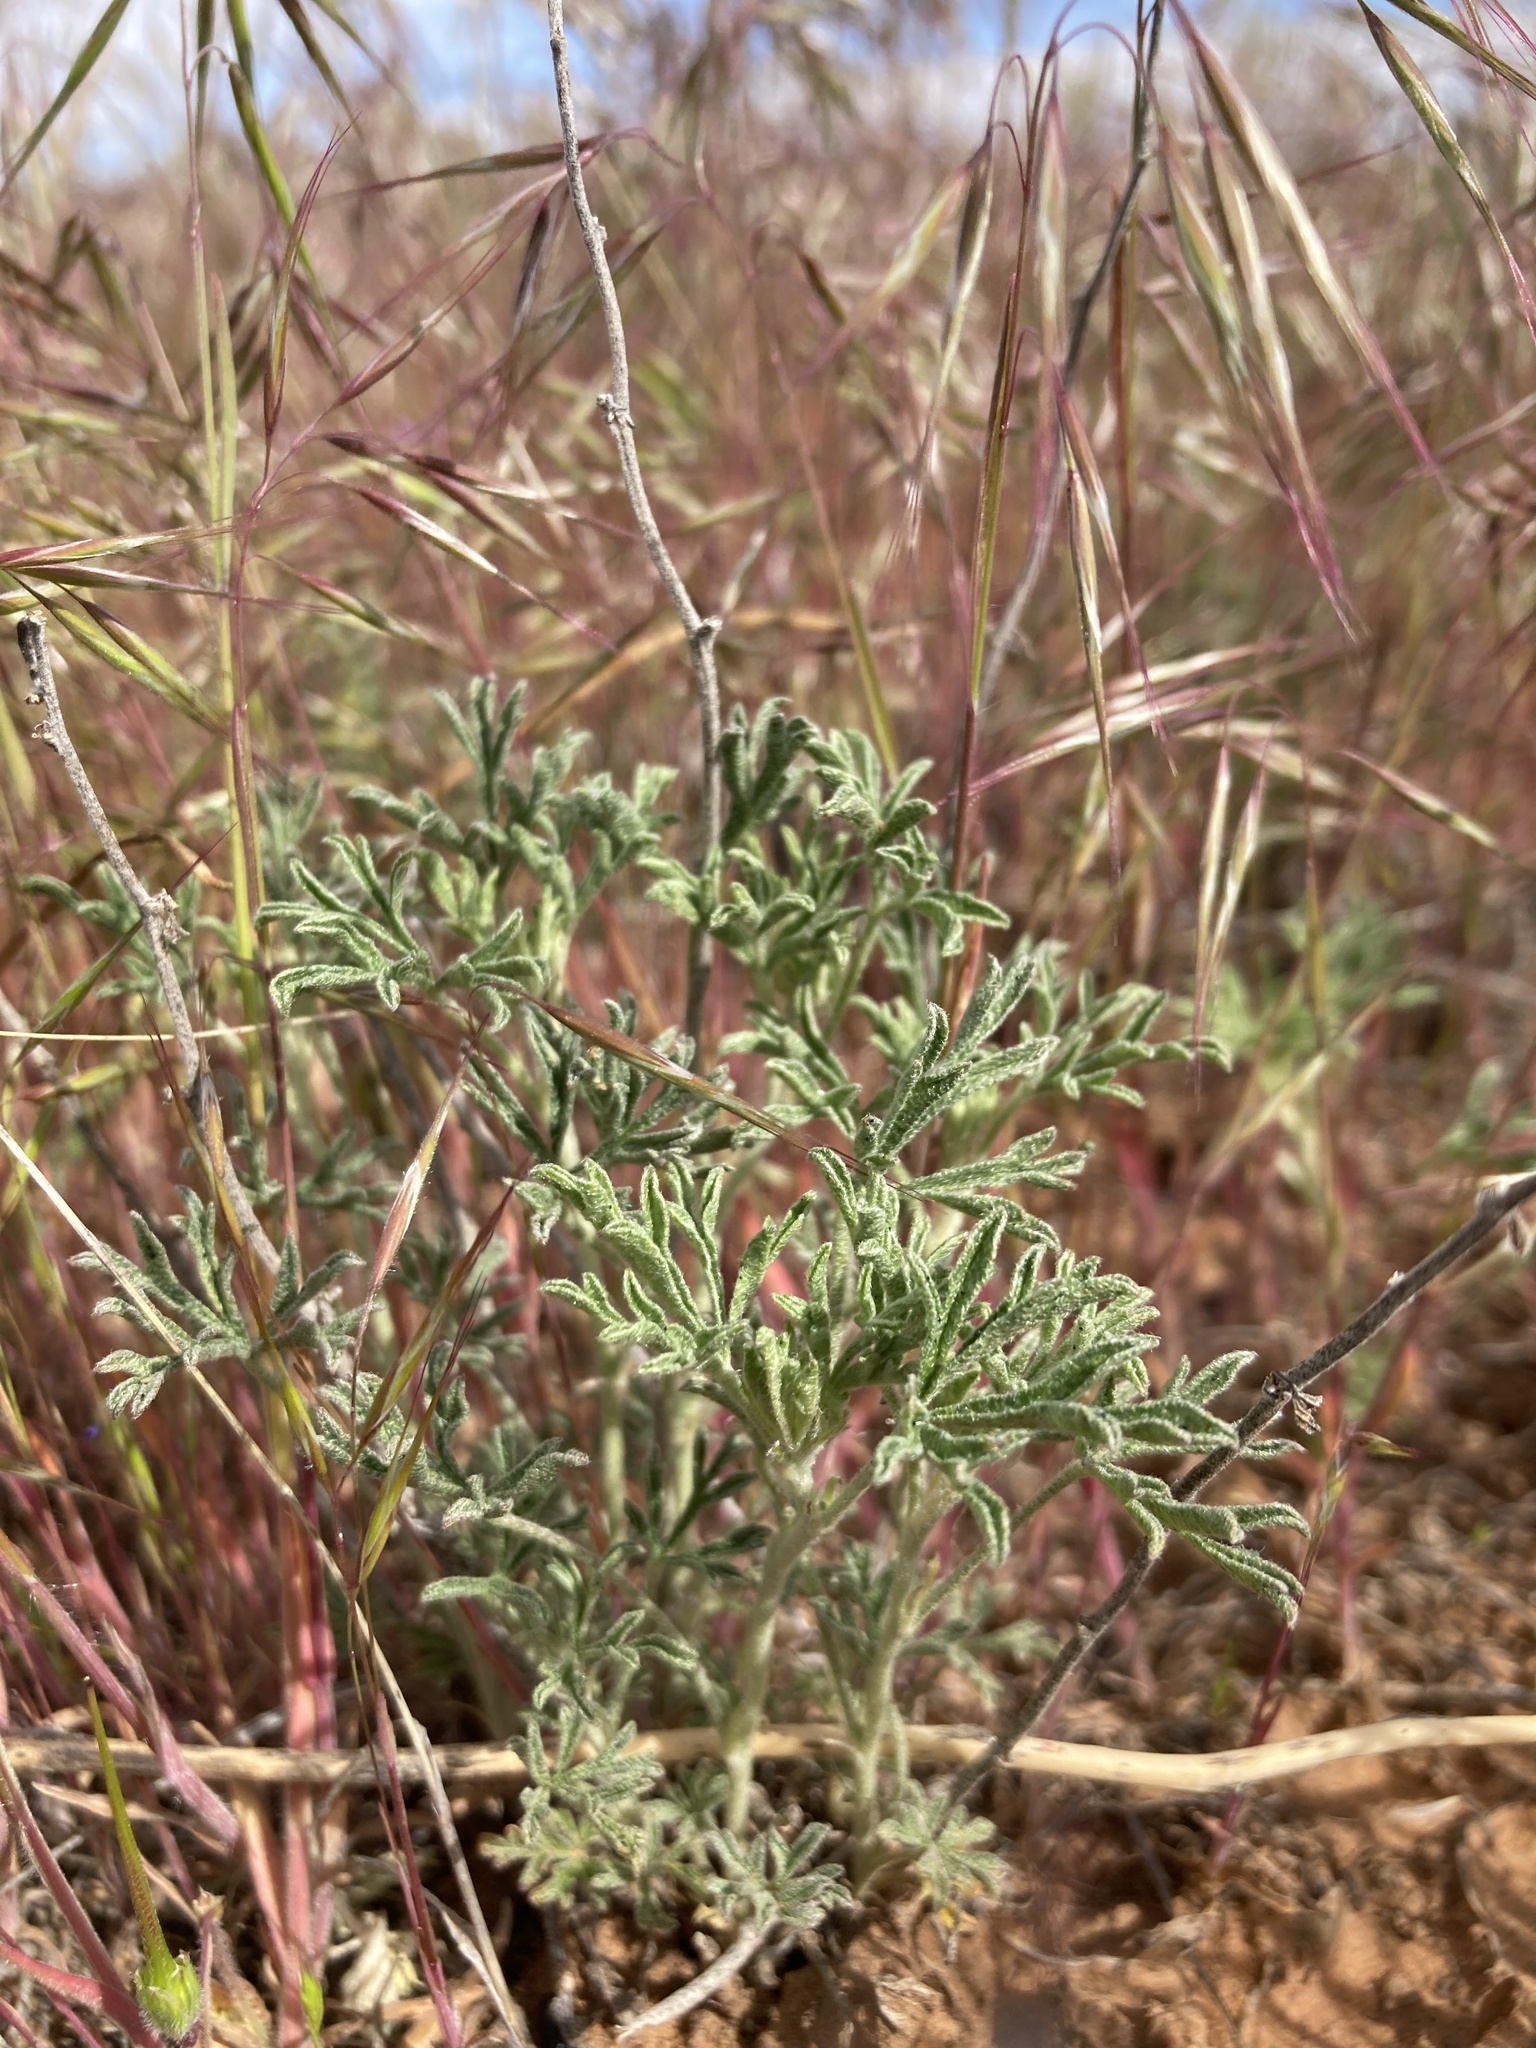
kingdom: Plantae
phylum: Tracheophyta
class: Magnoliopsida
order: Malvales
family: Malvaceae
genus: Sphaeralcea
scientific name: Sphaeralcea coccinea
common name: Moss-rose
